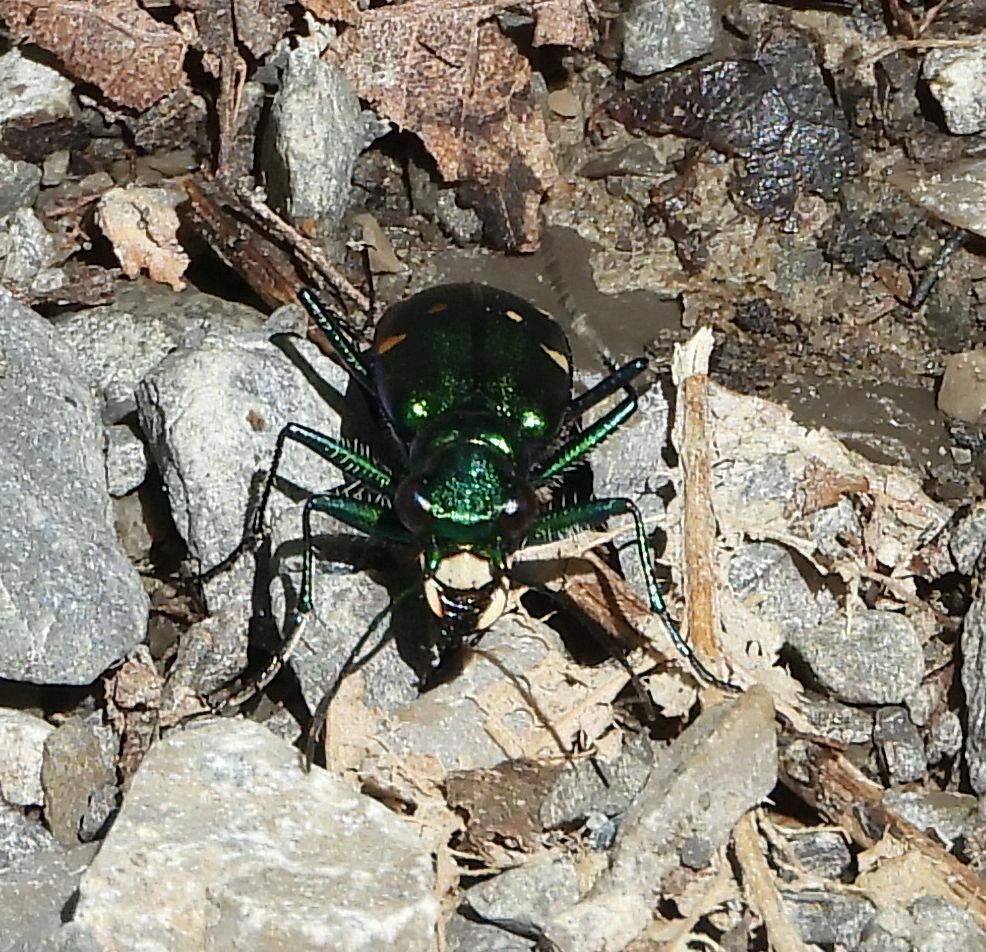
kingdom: Animalia
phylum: Arthropoda
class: Insecta
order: Coleoptera
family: Carabidae
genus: Cicindela
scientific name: Cicindela sexguttata
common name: Six-spotted tiger beetle
